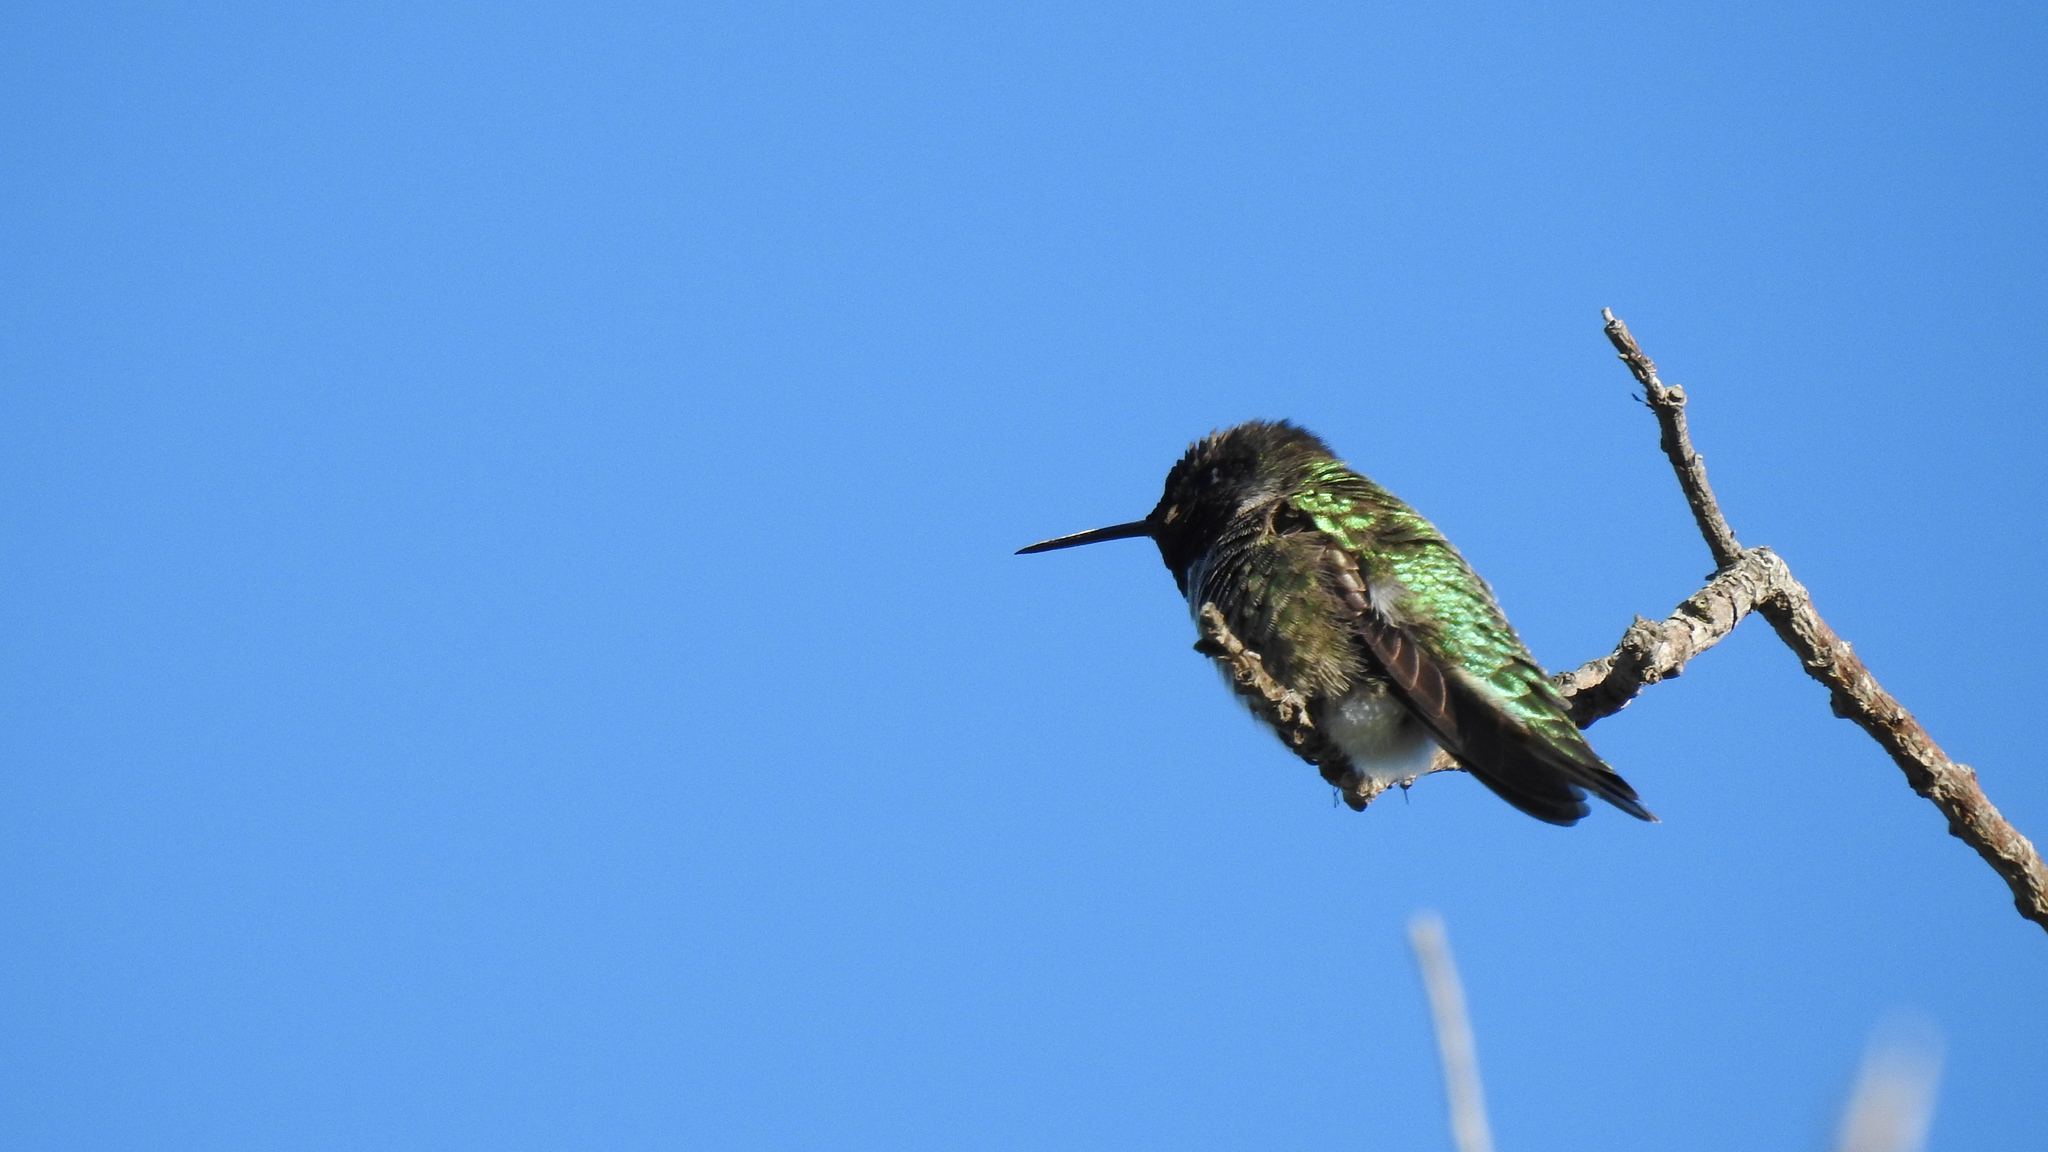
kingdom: Animalia
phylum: Chordata
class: Aves
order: Apodiformes
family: Trochilidae
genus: Calypte
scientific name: Calypte anna
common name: Anna's hummingbird
